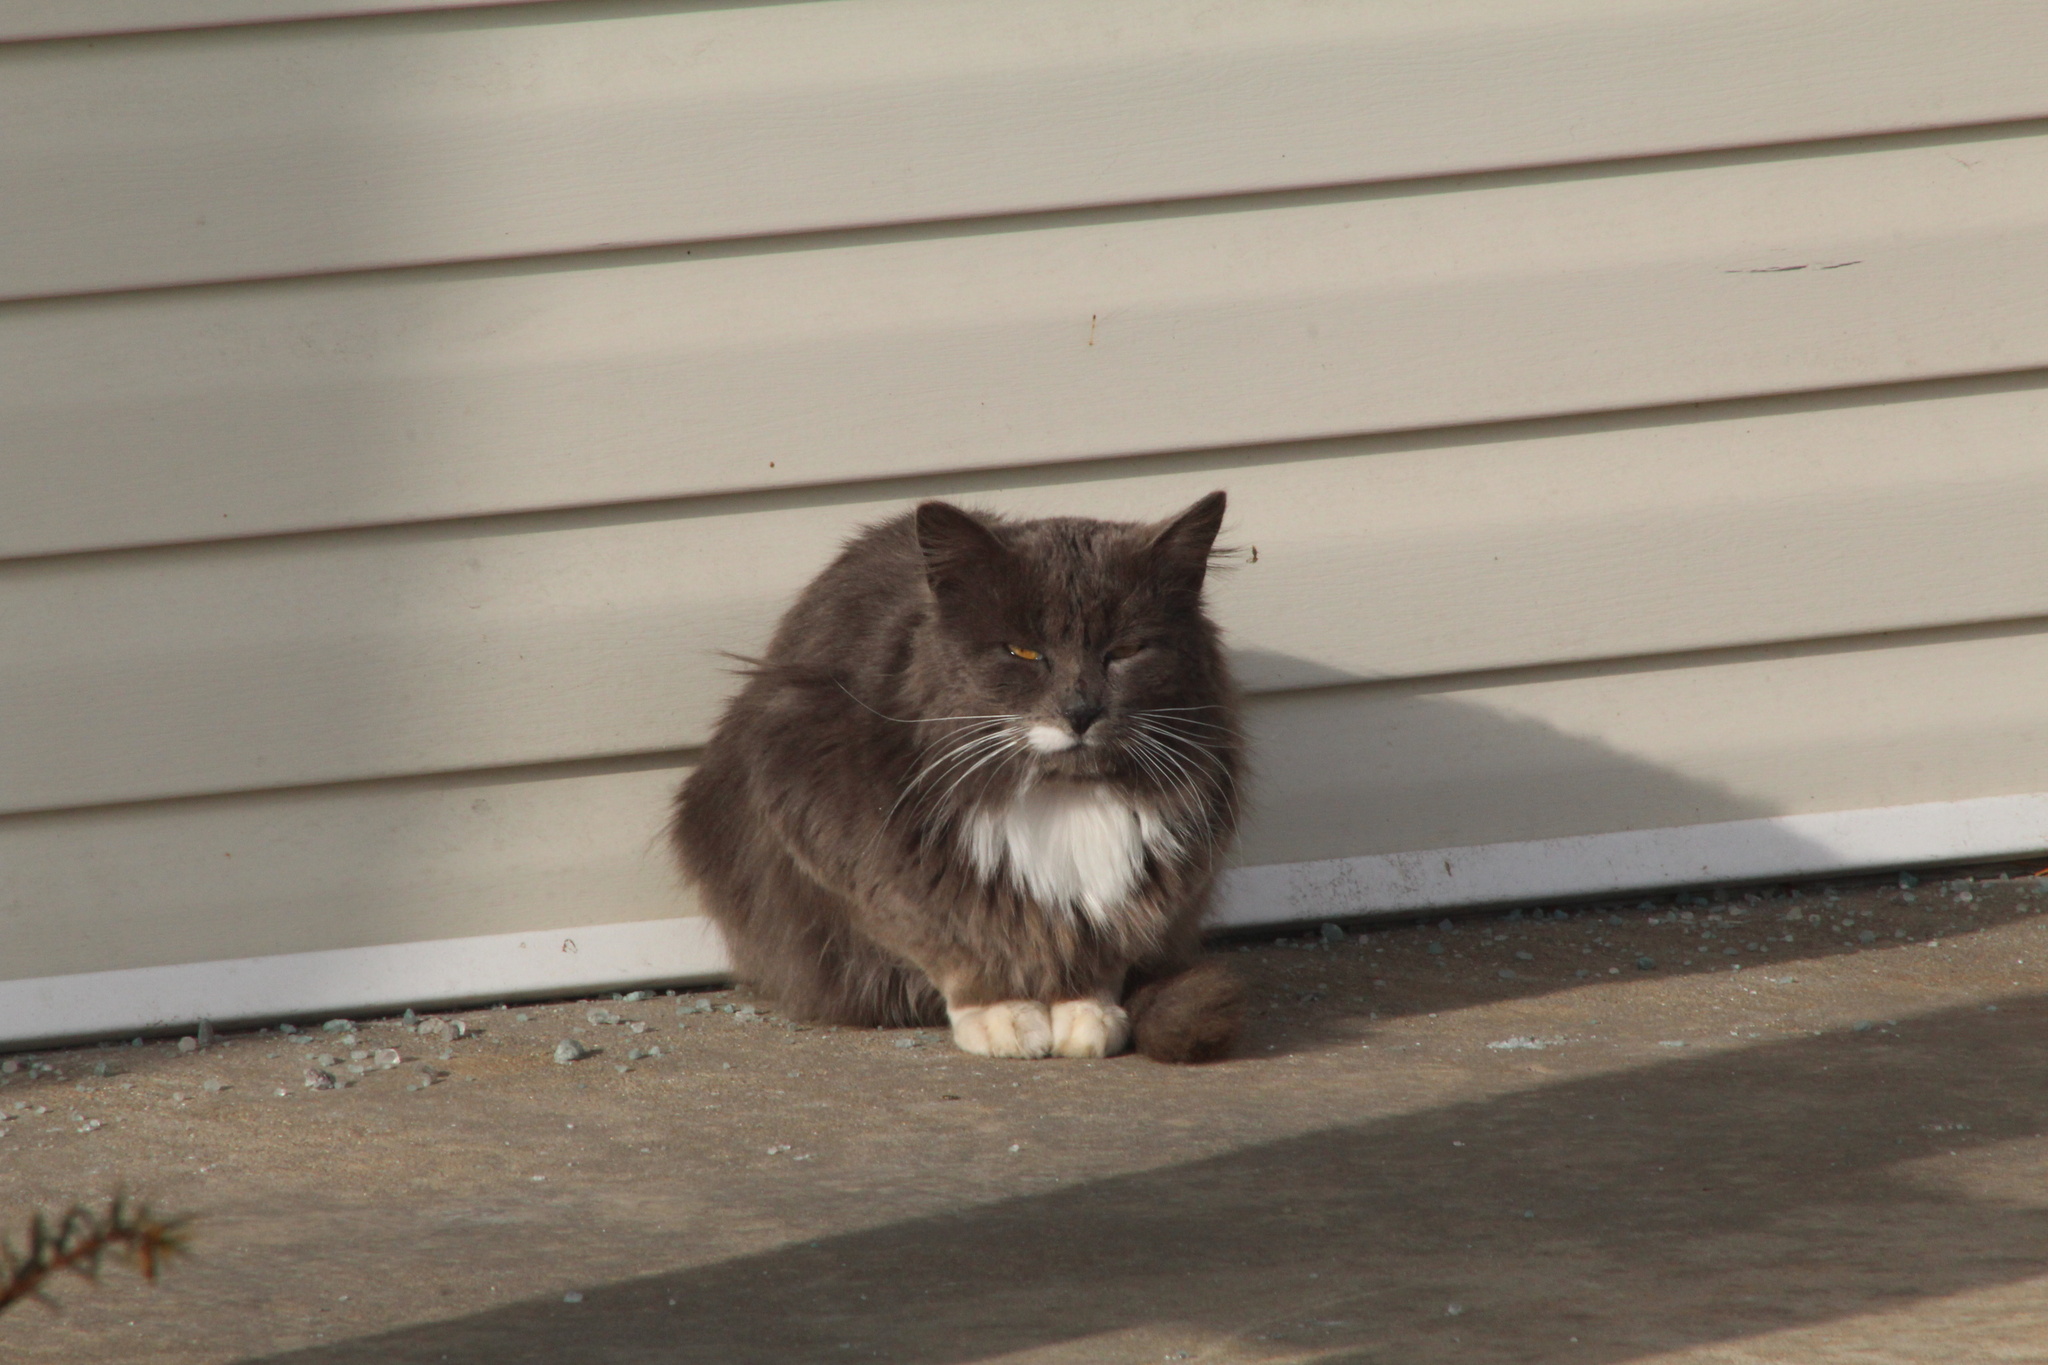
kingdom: Animalia
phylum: Chordata
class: Mammalia
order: Carnivora
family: Felidae
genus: Felis
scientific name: Felis catus
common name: Domestic cat
